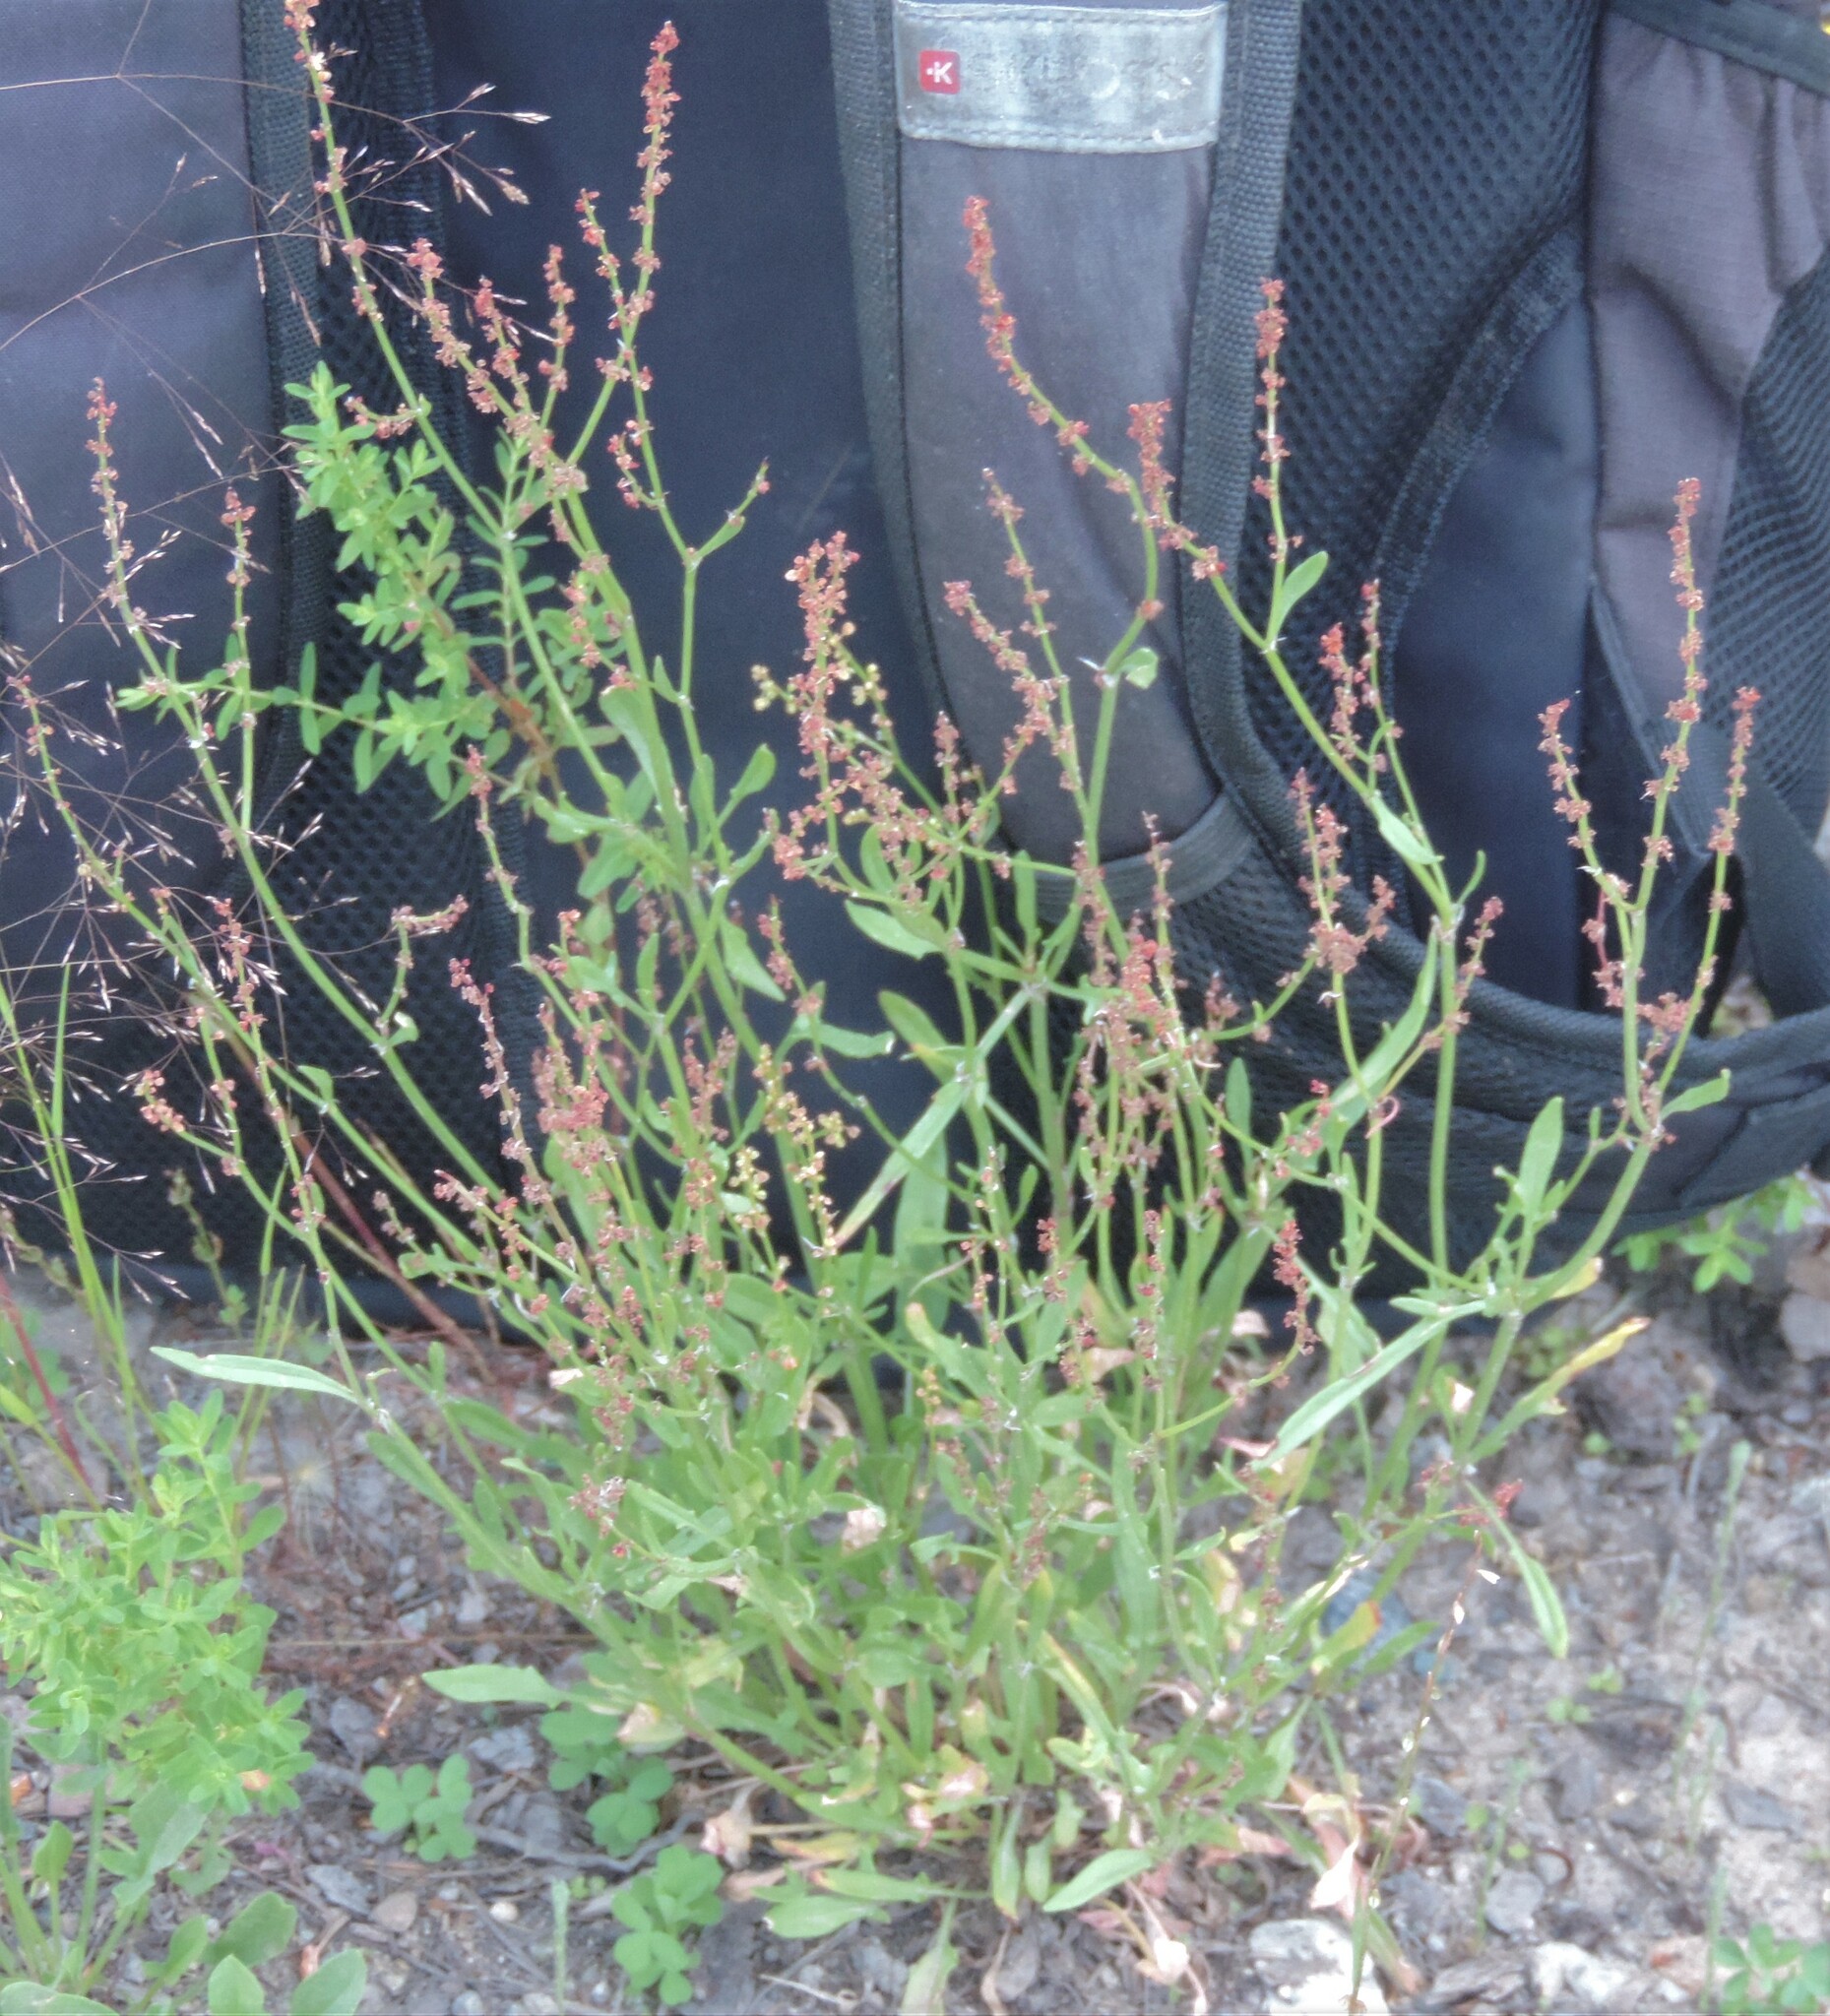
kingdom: Plantae
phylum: Tracheophyta
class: Magnoliopsida
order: Caryophyllales
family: Polygonaceae
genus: Rumex
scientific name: Rumex acetosella
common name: Common sheep sorrel
